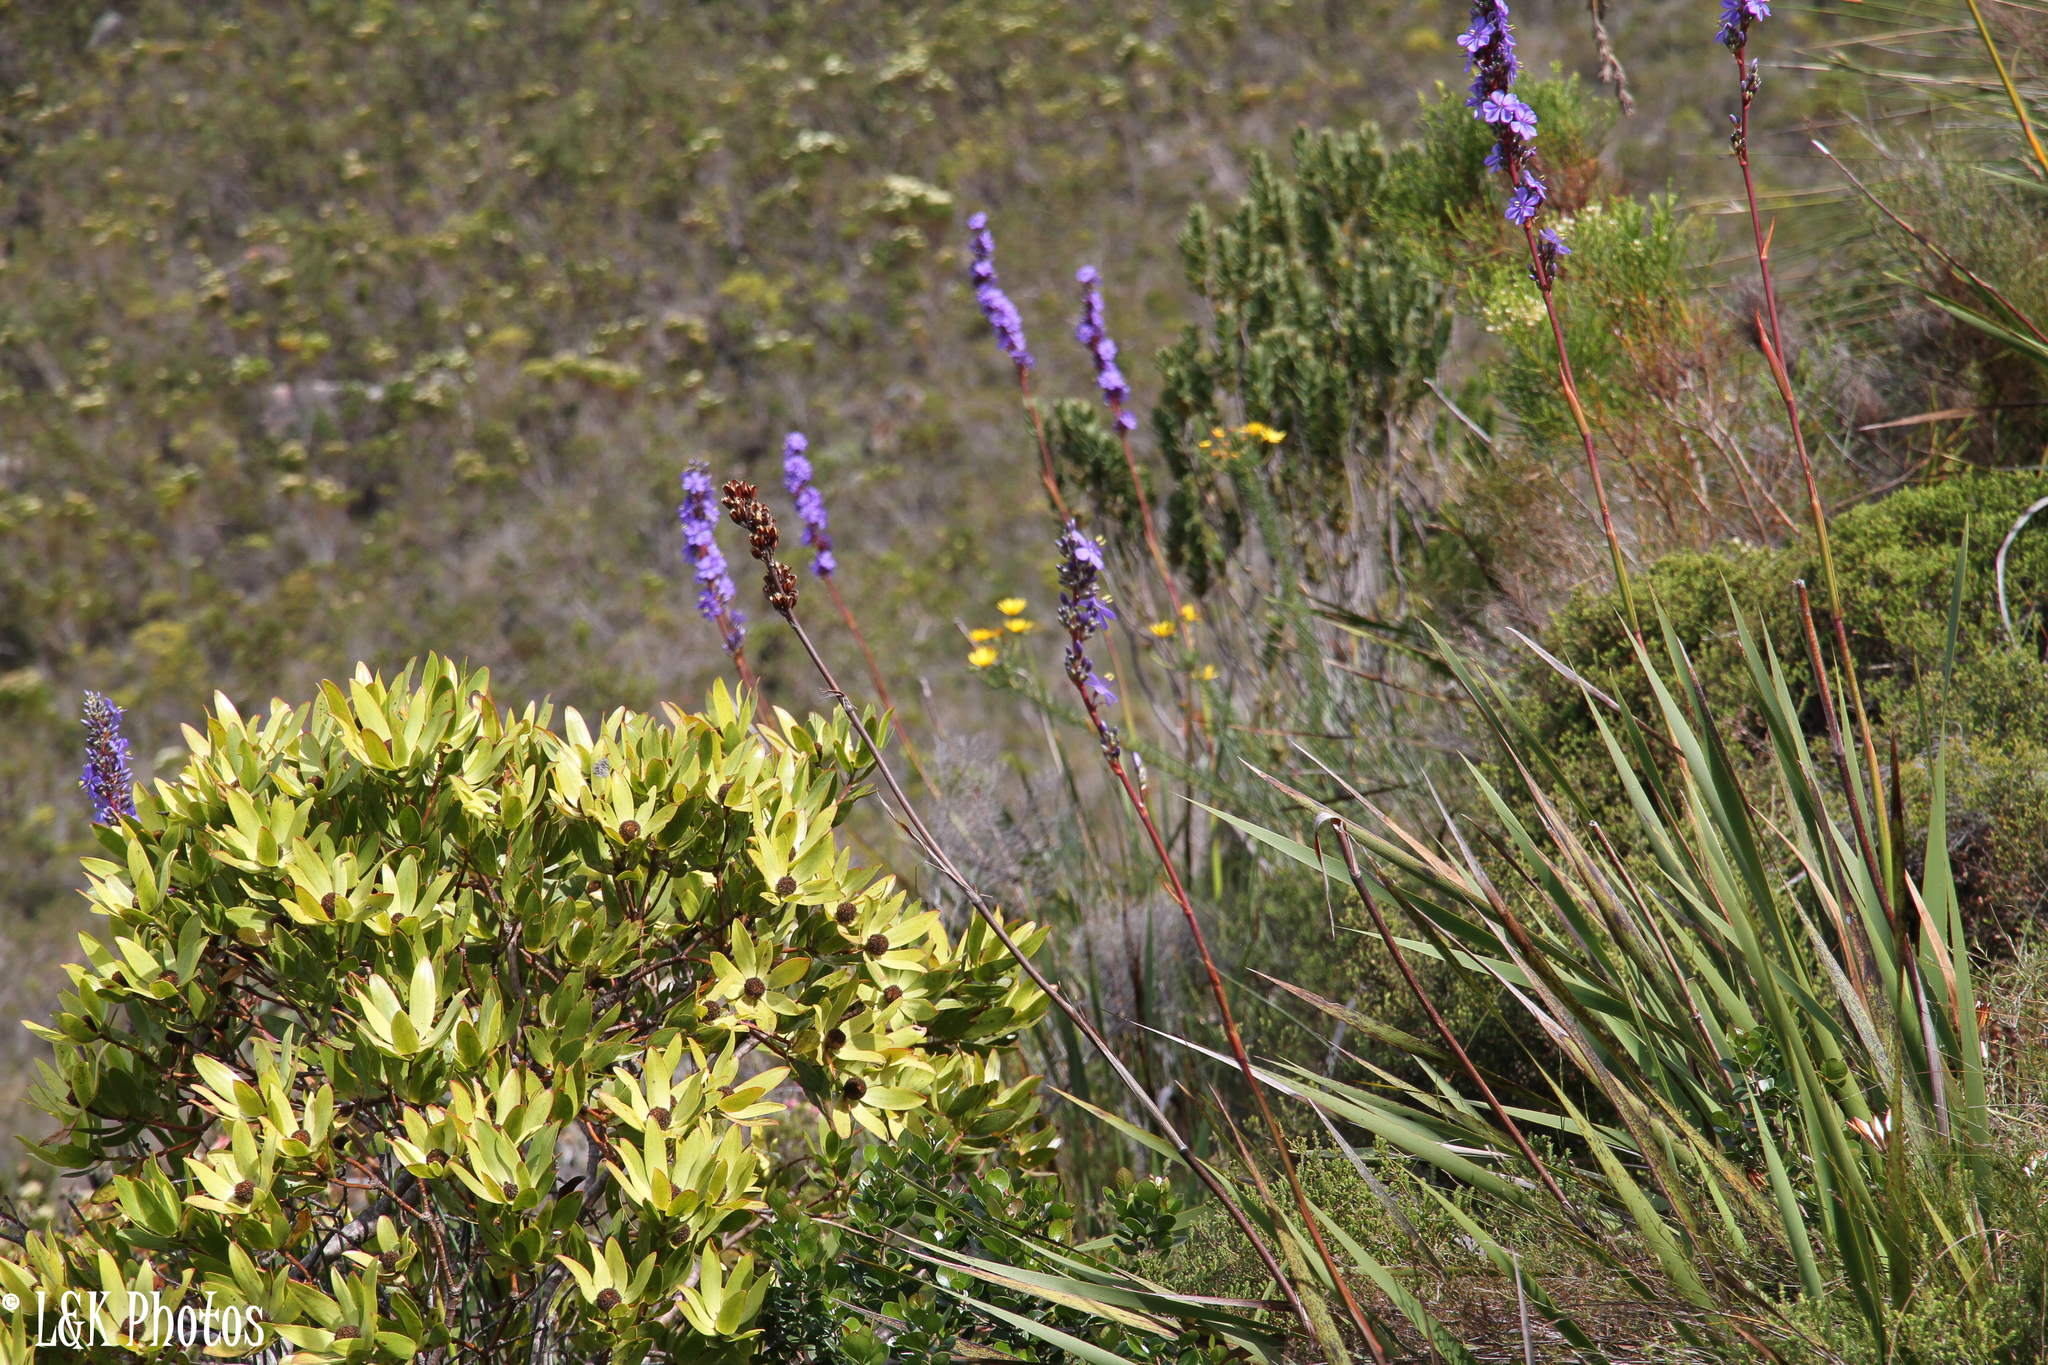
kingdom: Plantae
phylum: Tracheophyta
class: Magnoliopsida
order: Proteales
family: Proteaceae
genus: Leucadendron
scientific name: Leucadendron gandogeri
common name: Broad-leaf conebush
